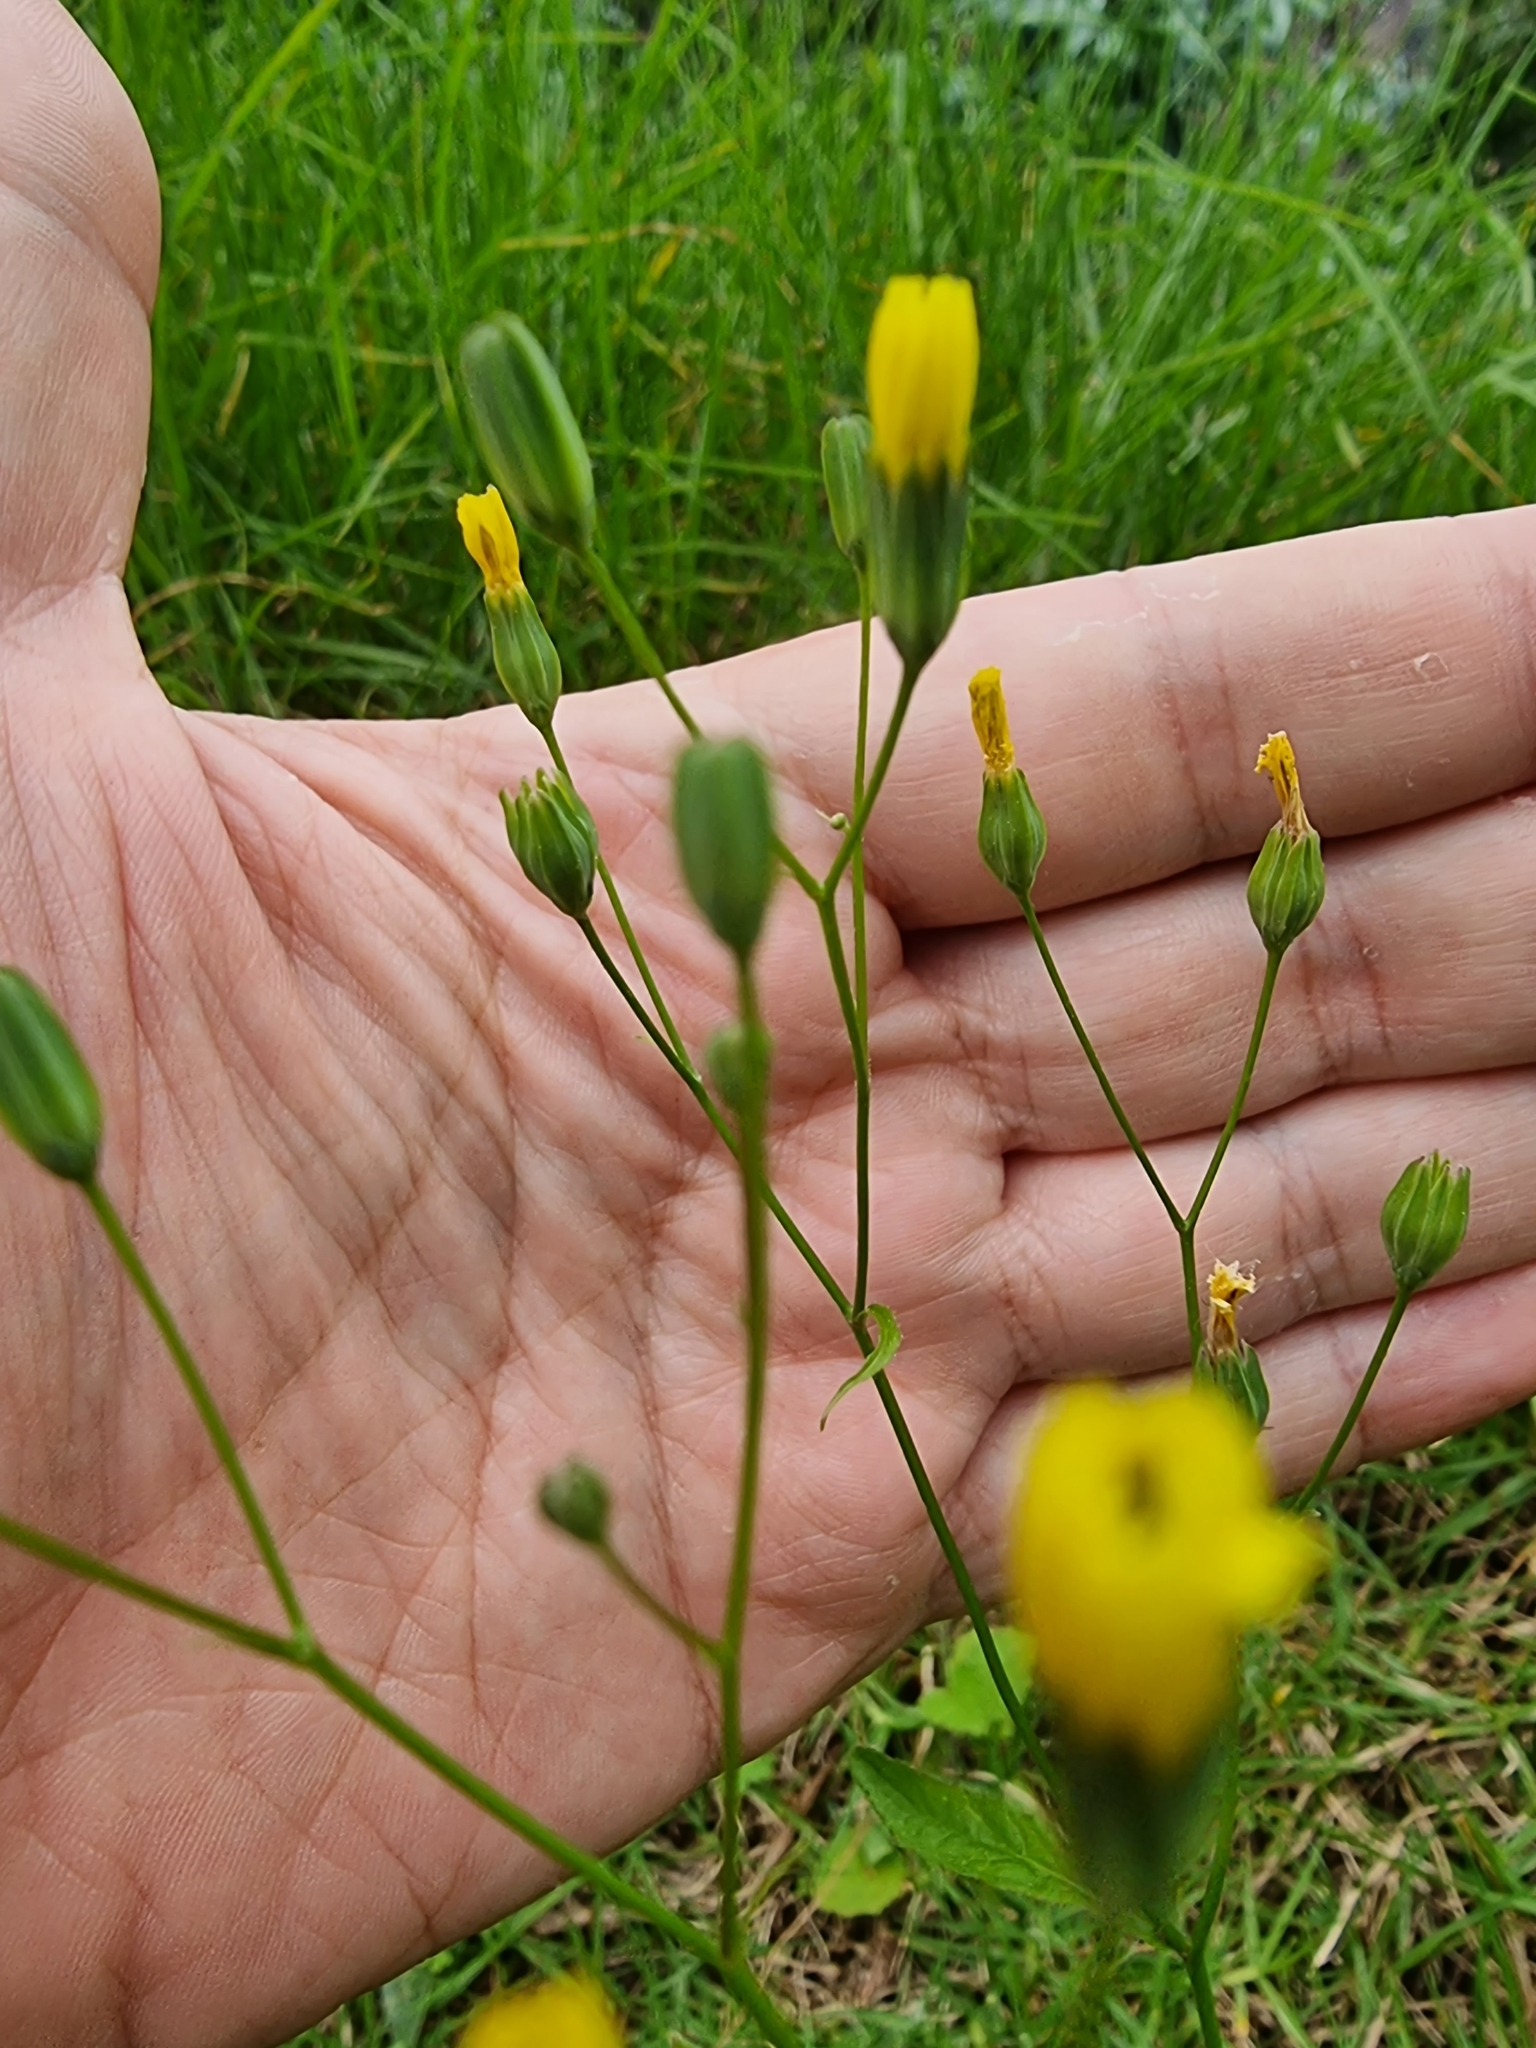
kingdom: Plantae
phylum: Tracheophyta
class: Magnoliopsida
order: Asterales
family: Asteraceae
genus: Lapsana
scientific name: Lapsana communis
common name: Nipplewort
